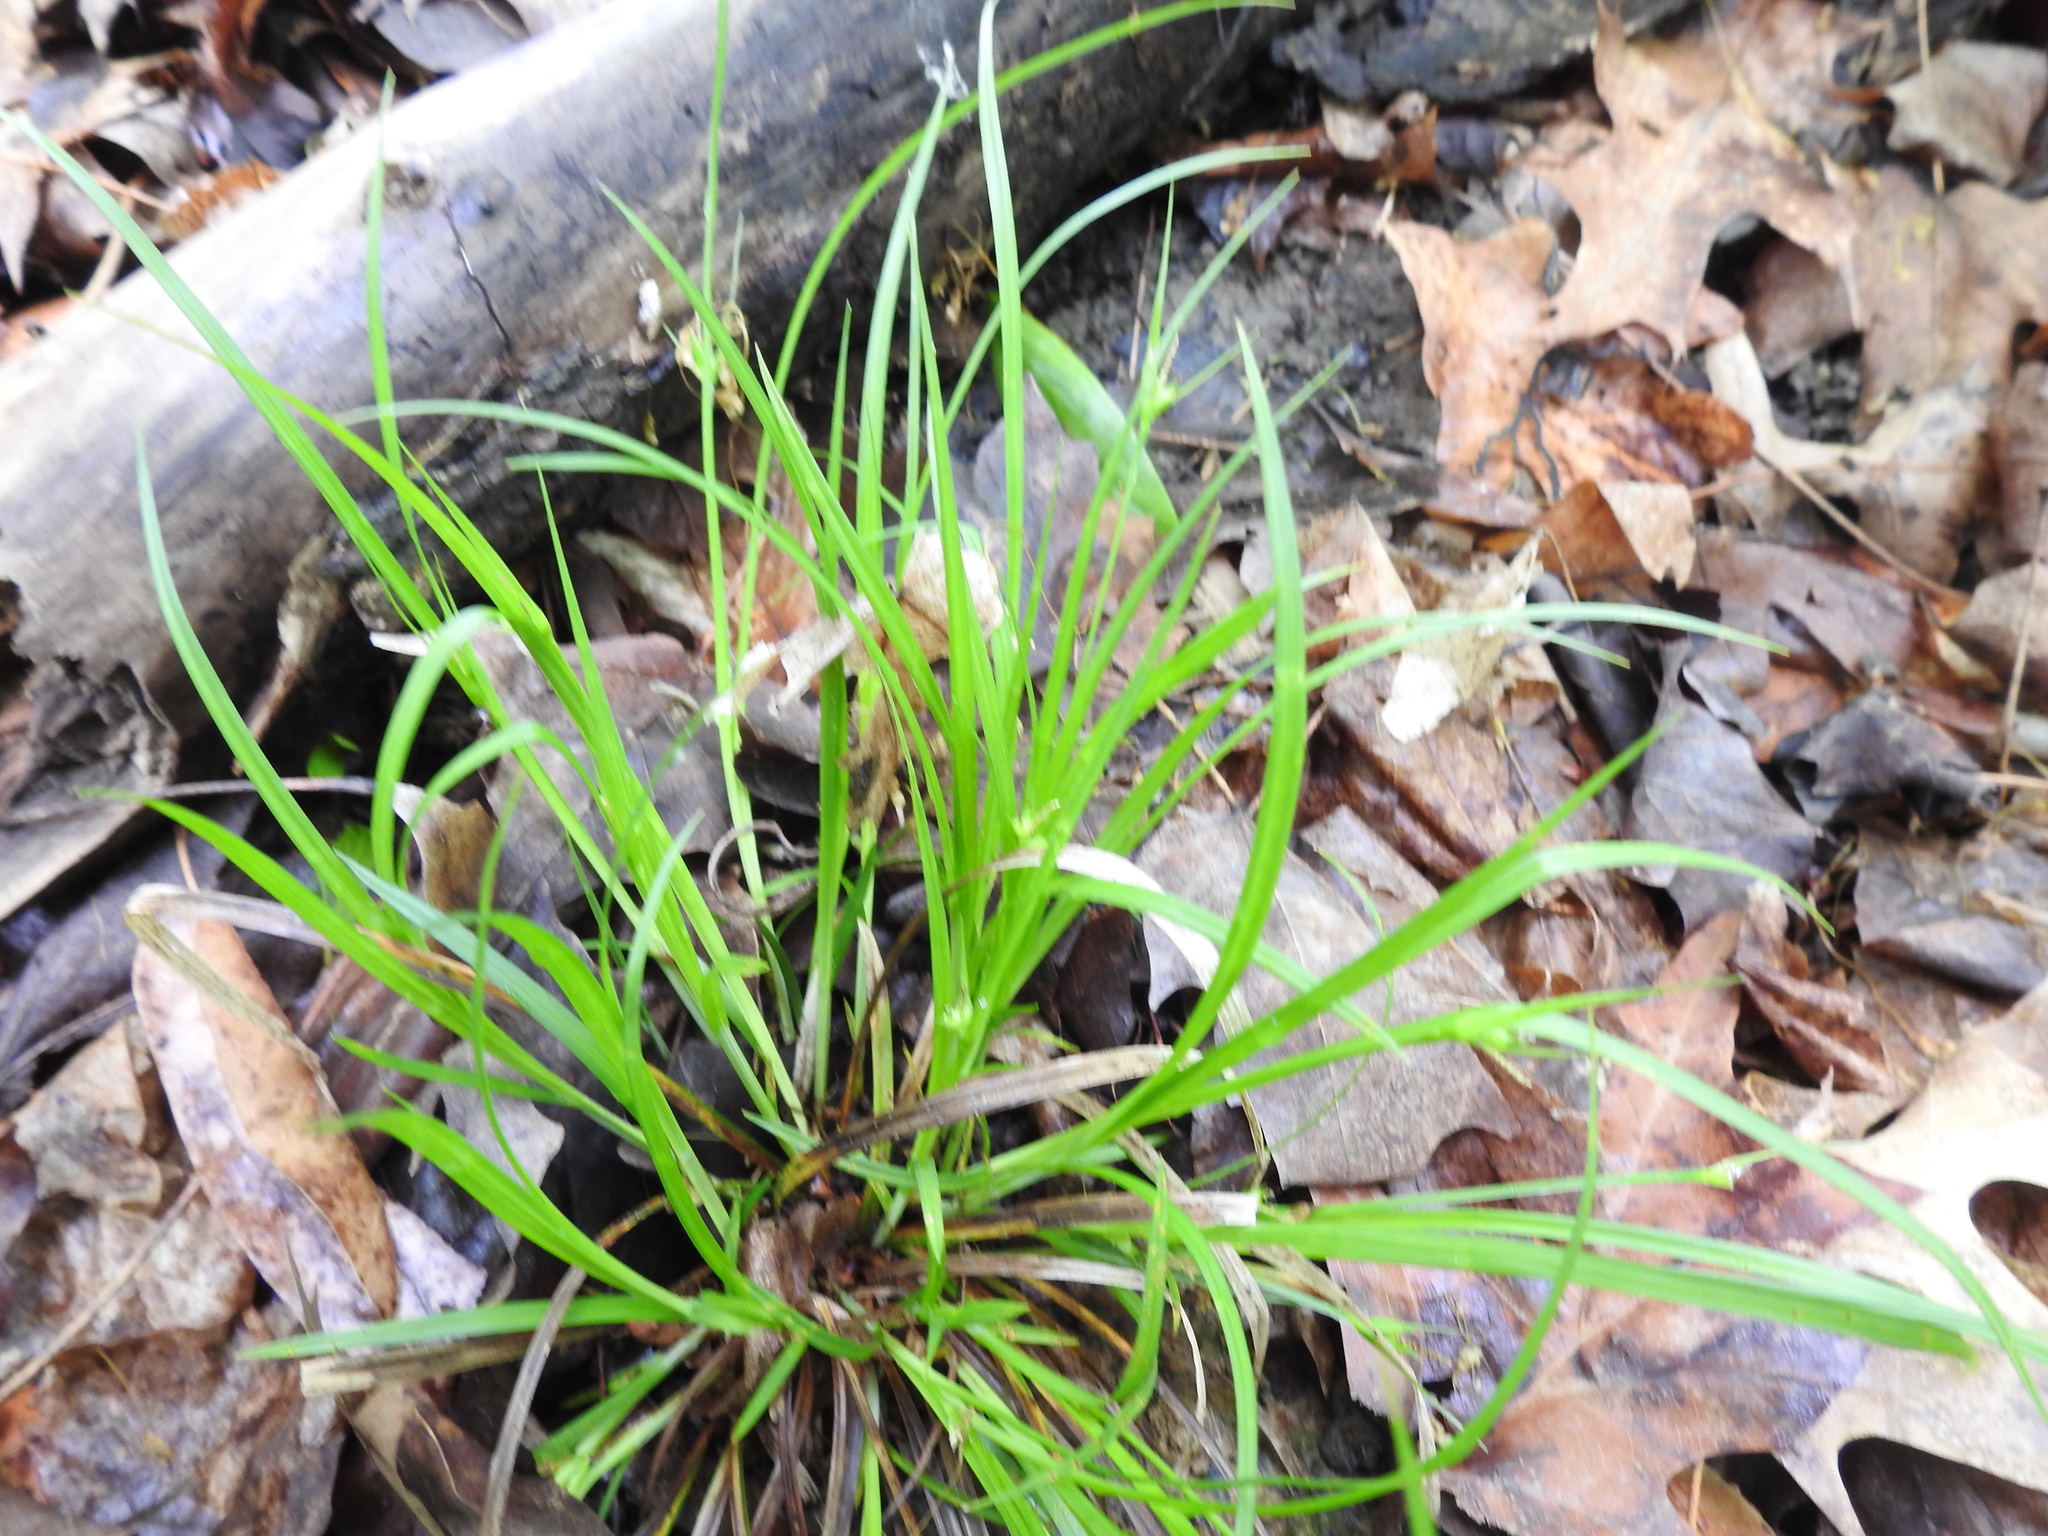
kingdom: Plantae
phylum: Tracheophyta
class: Liliopsida
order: Poales
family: Cyperaceae
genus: Carex
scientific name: Carex jamesii
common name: Grass sedge
